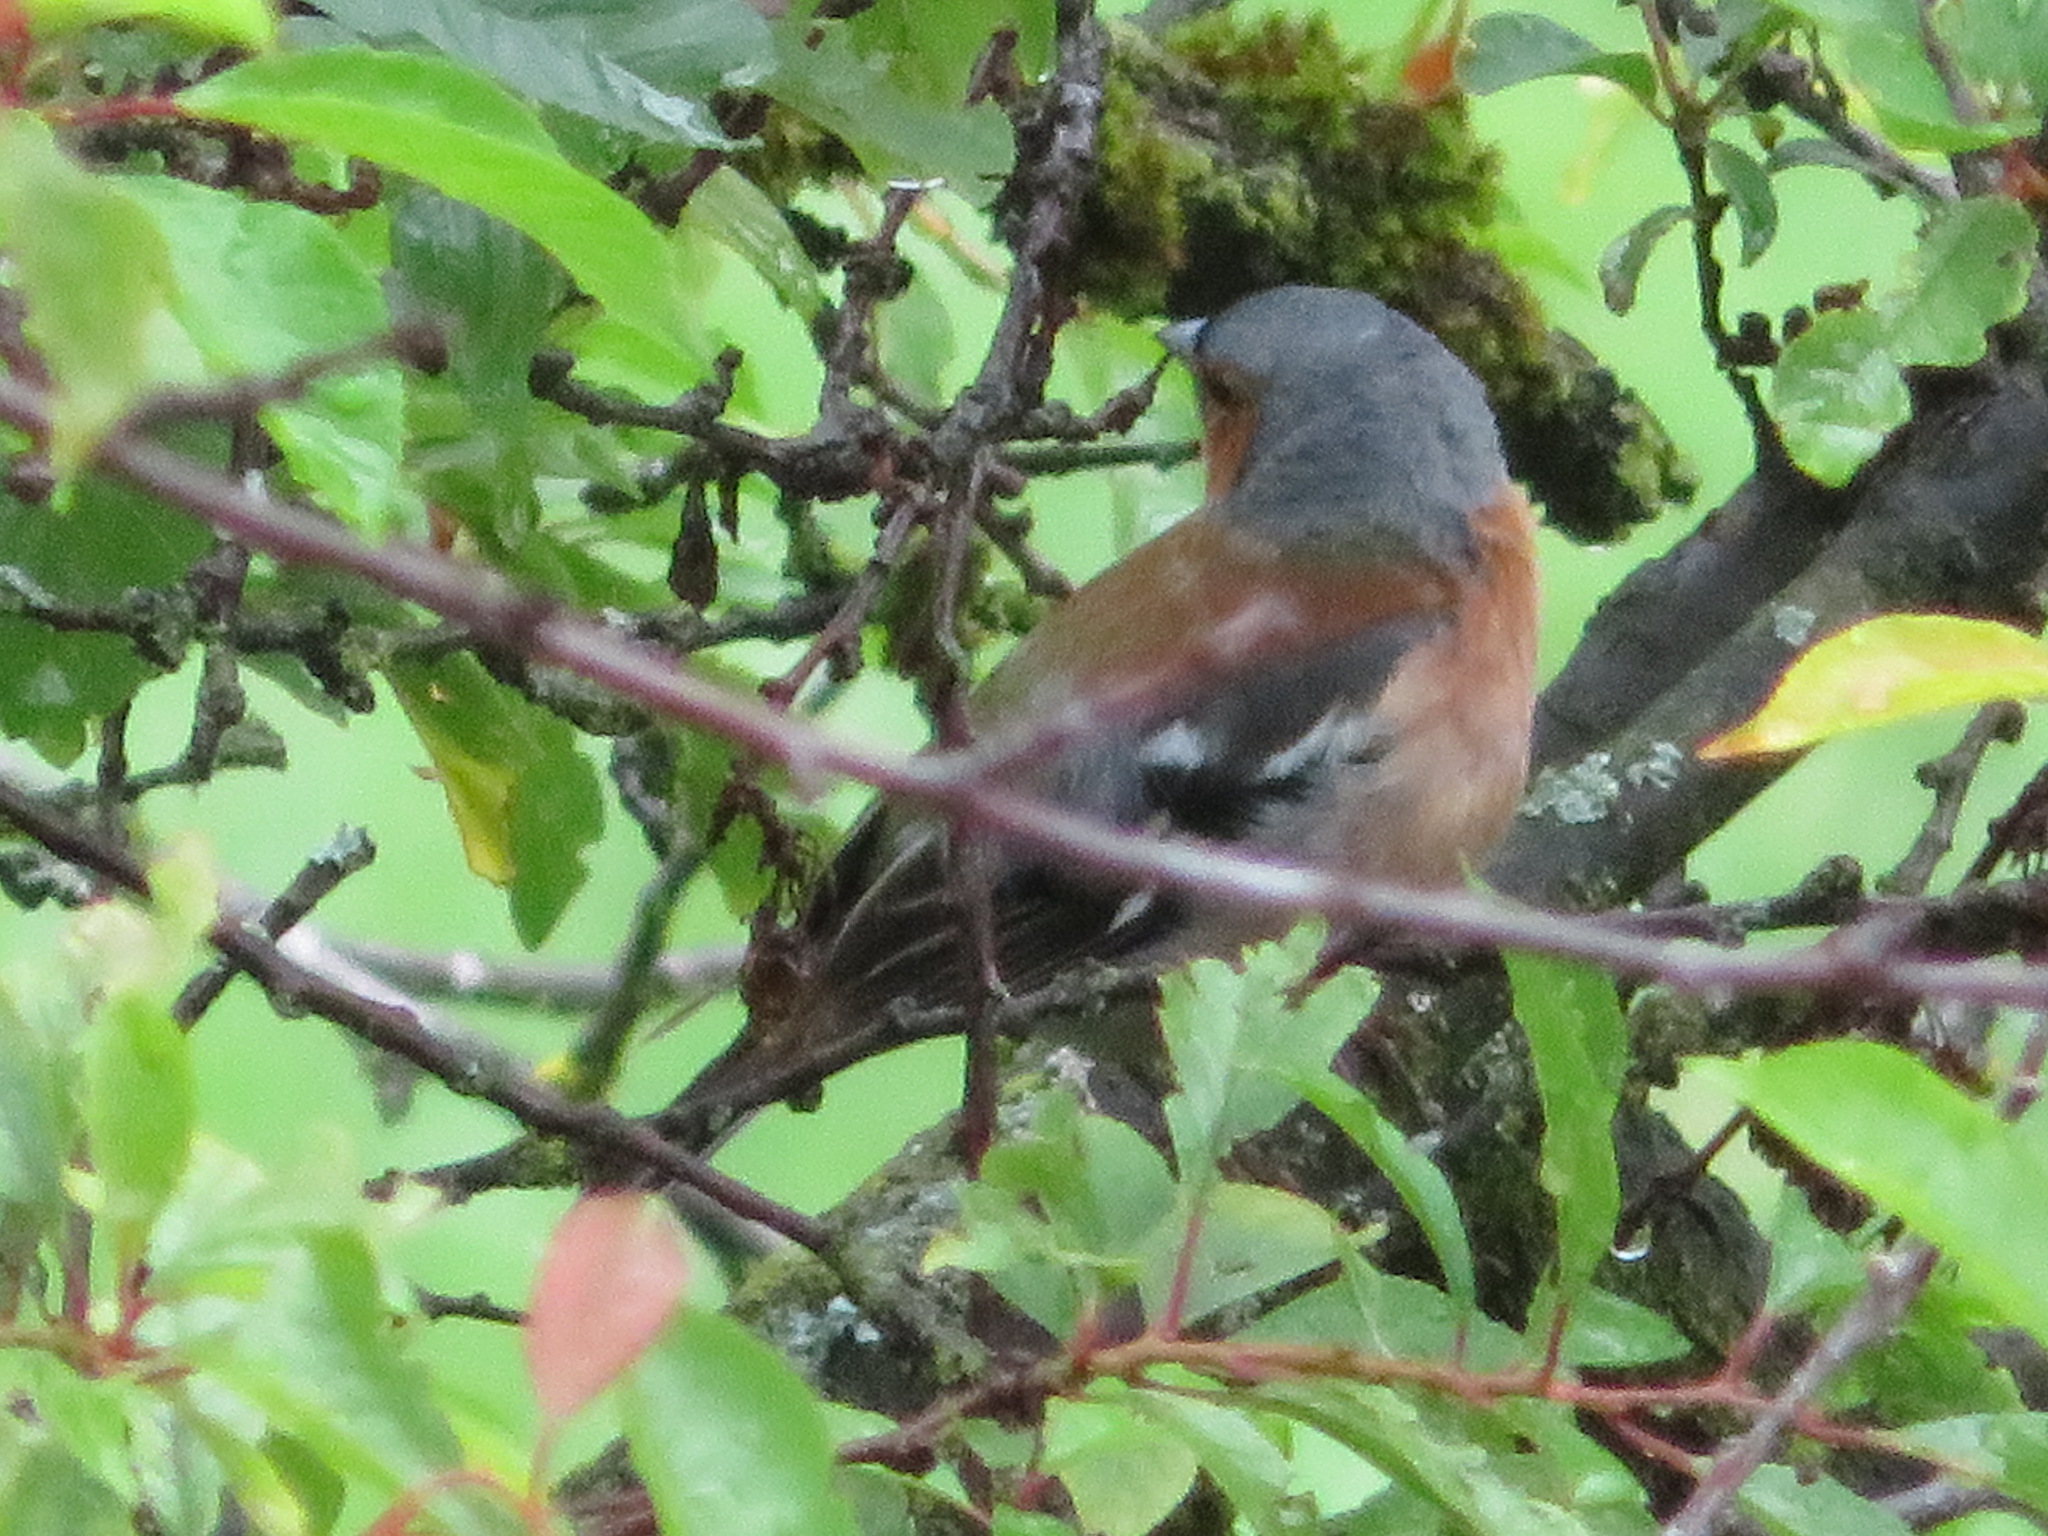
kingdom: Animalia
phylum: Chordata
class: Aves
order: Passeriformes
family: Fringillidae
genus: Fringilla
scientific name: Fringilla coelebs
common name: Common chaffinch
